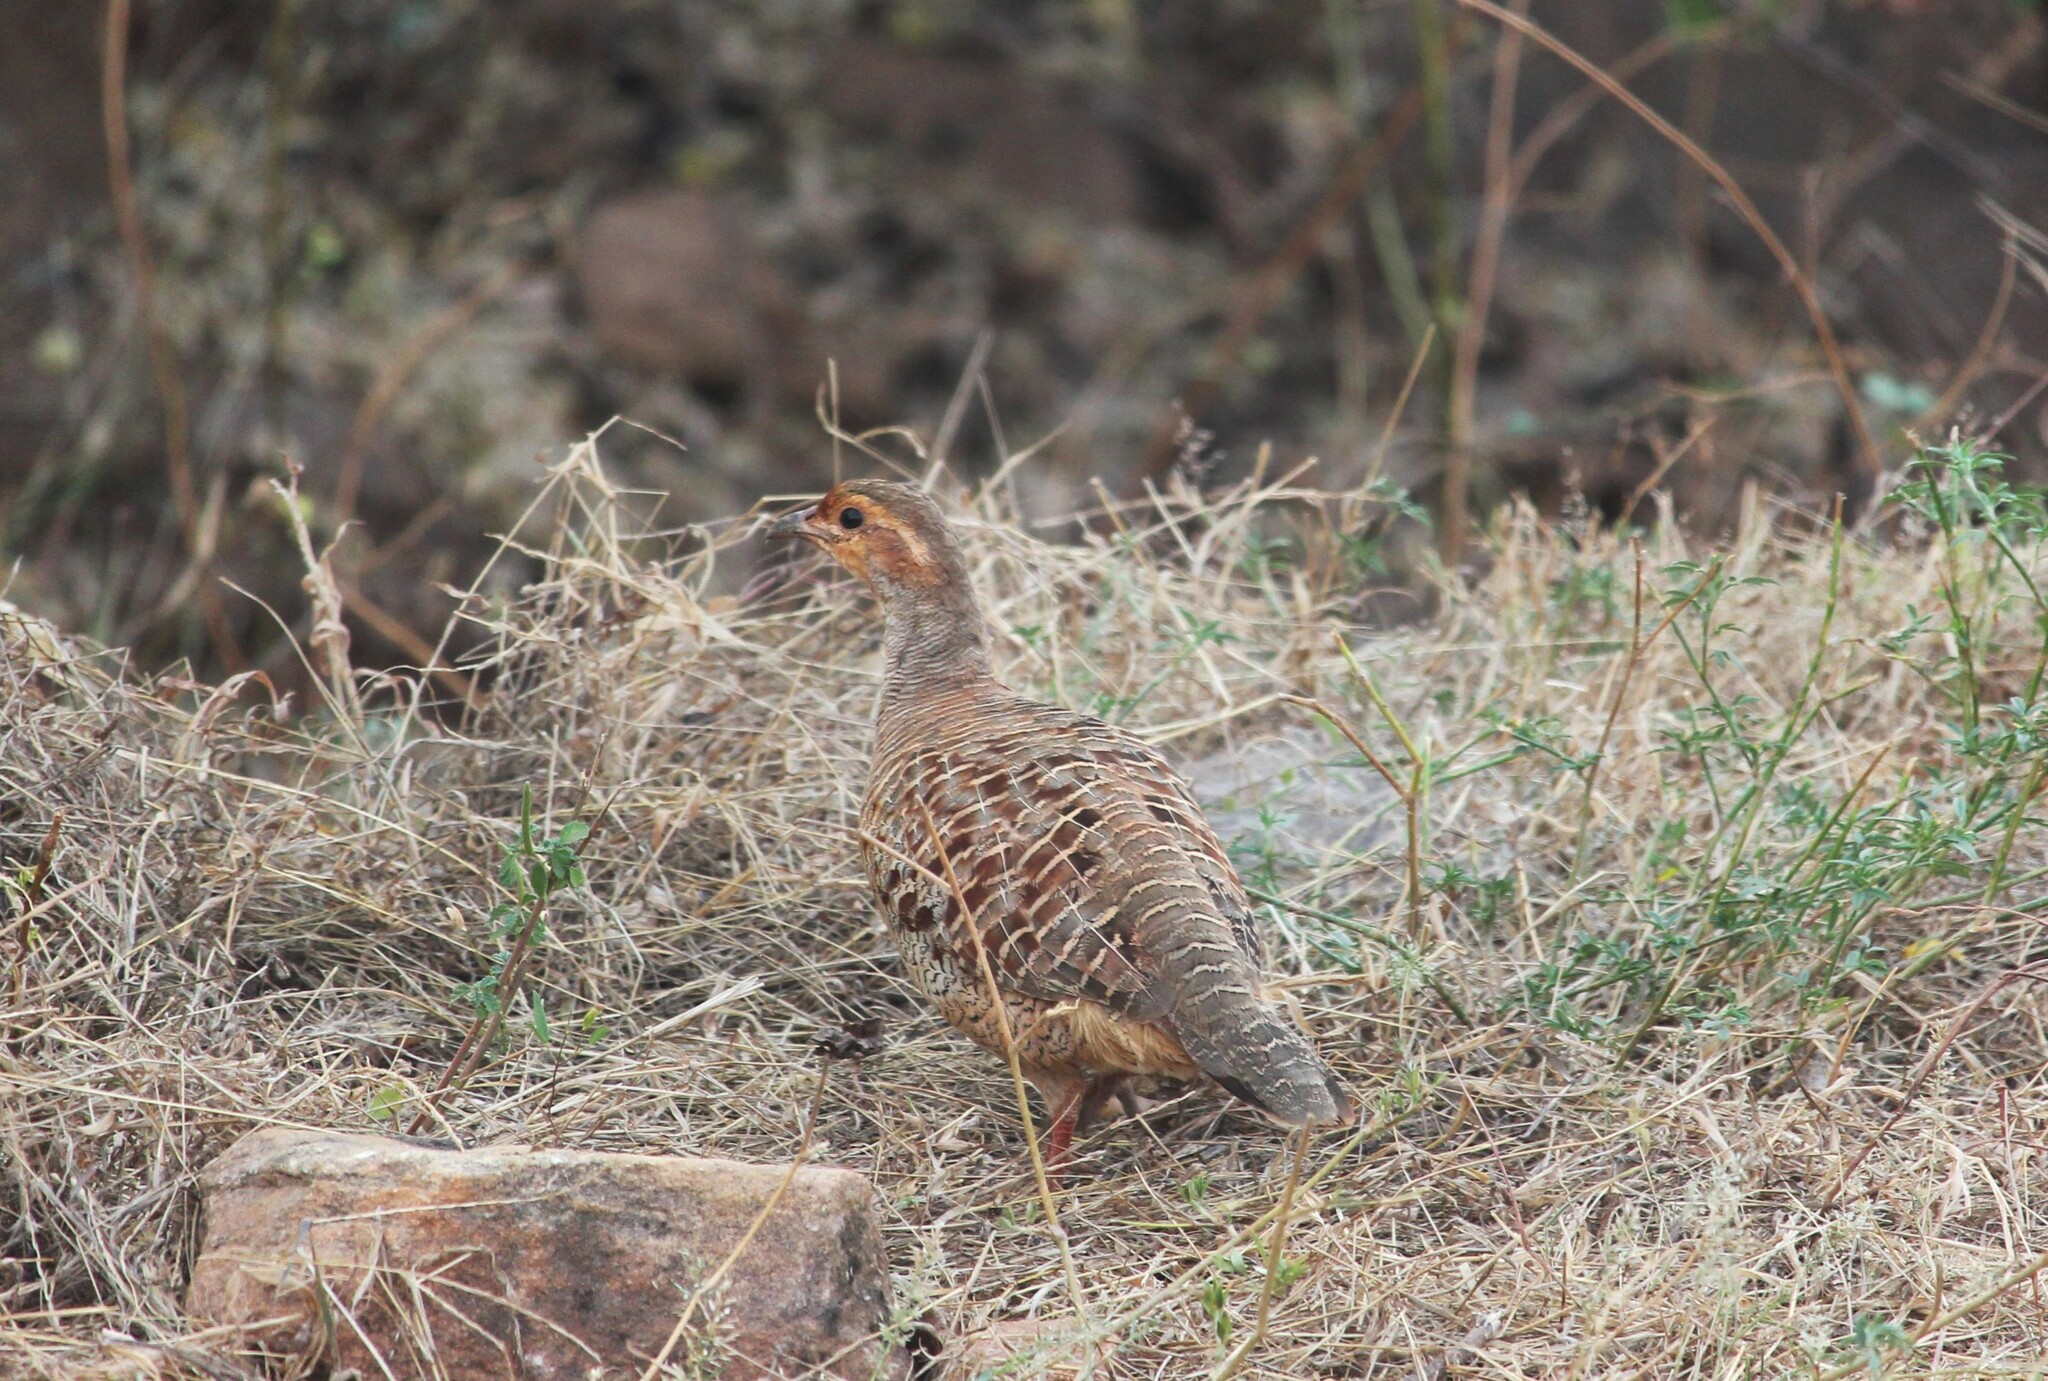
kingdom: Animalia
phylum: Chordata
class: Aves
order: Galliformes
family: Phasianidae
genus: Ortygornis
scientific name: Ortygornis pondicerianus
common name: Grey francolin
